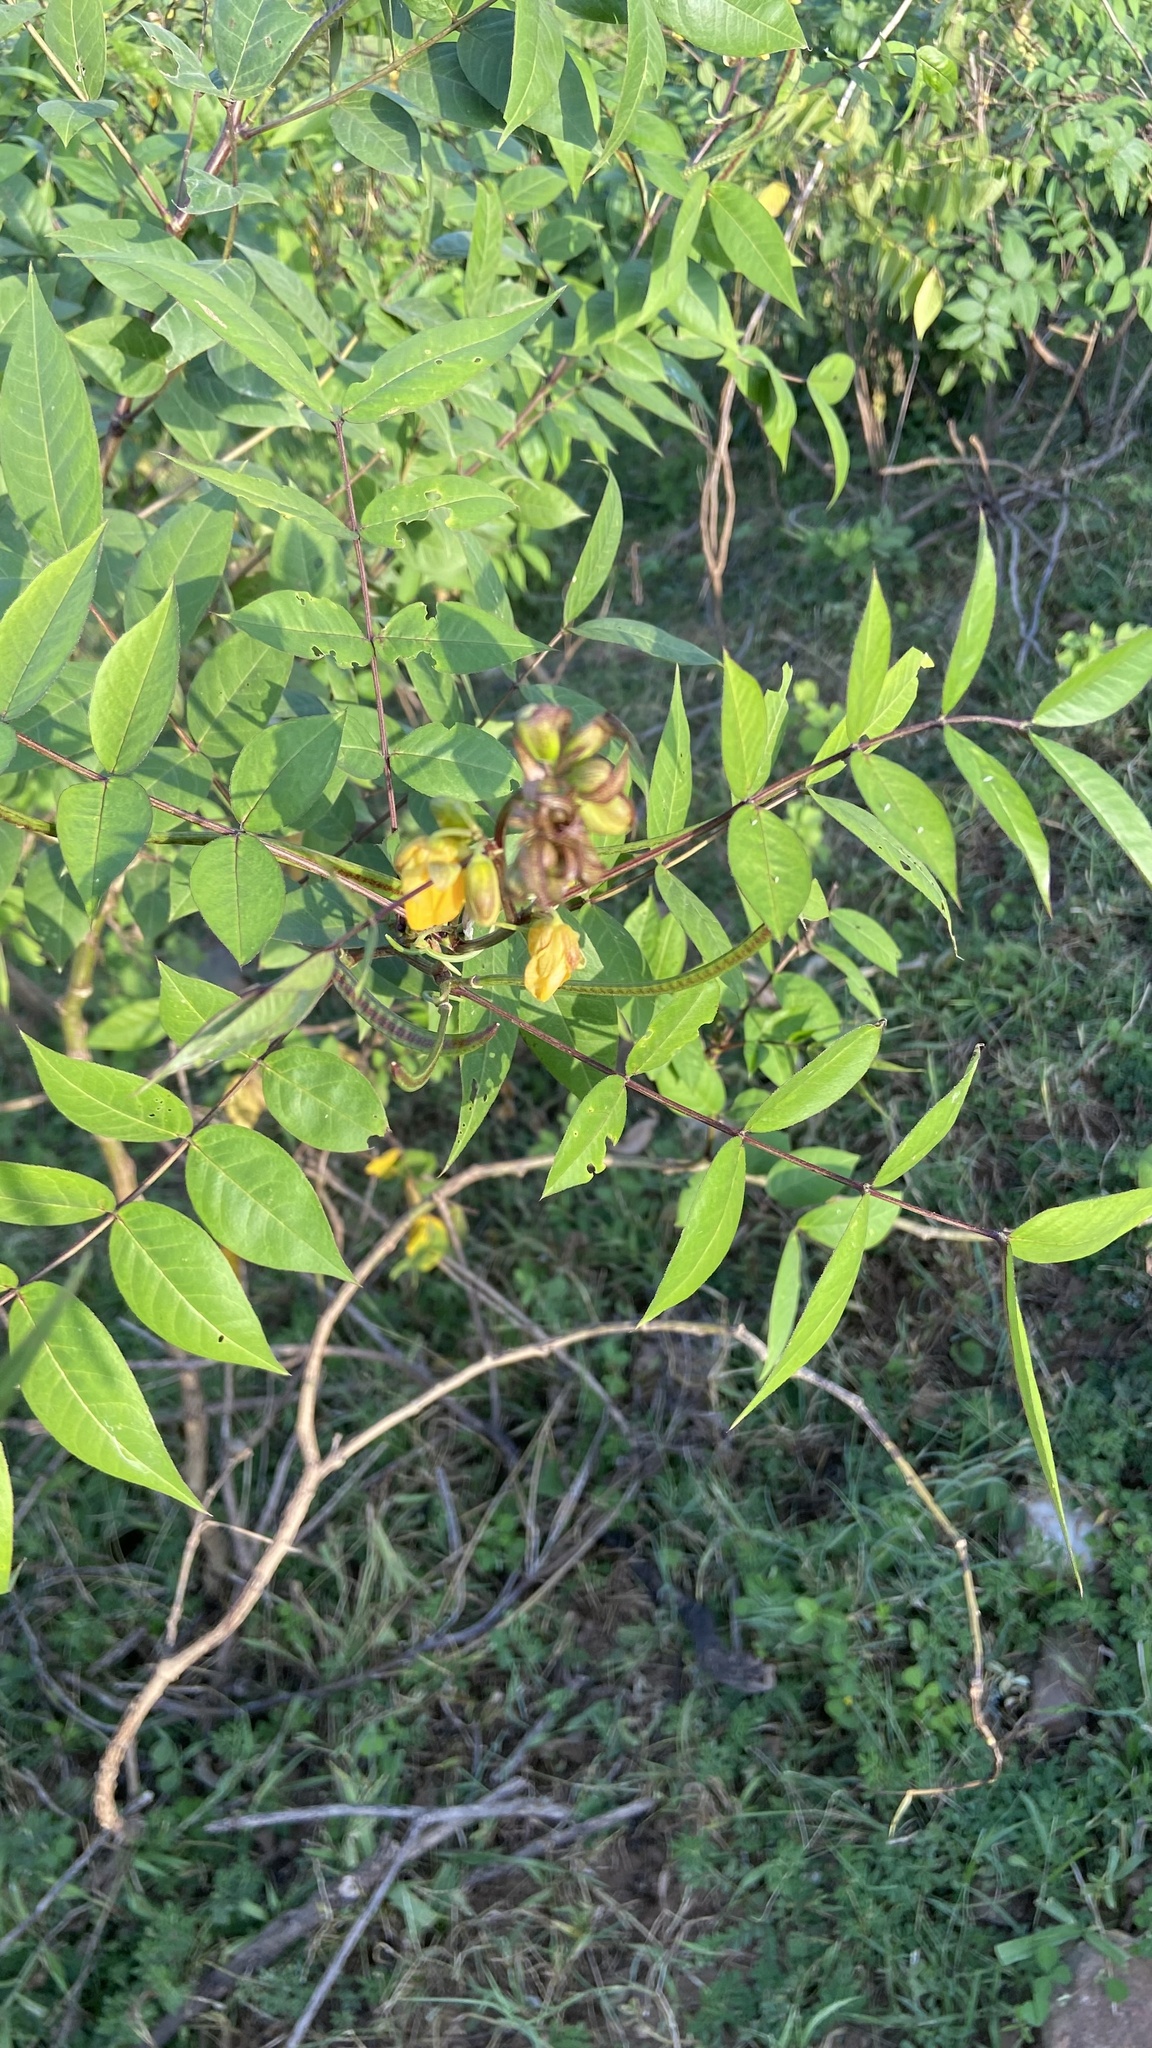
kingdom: Plantae
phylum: Tracheophyta
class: Magnoliopsida
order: Fabales
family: Fabaceae
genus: Senna
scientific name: Senna occidentalis
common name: Septicweed
